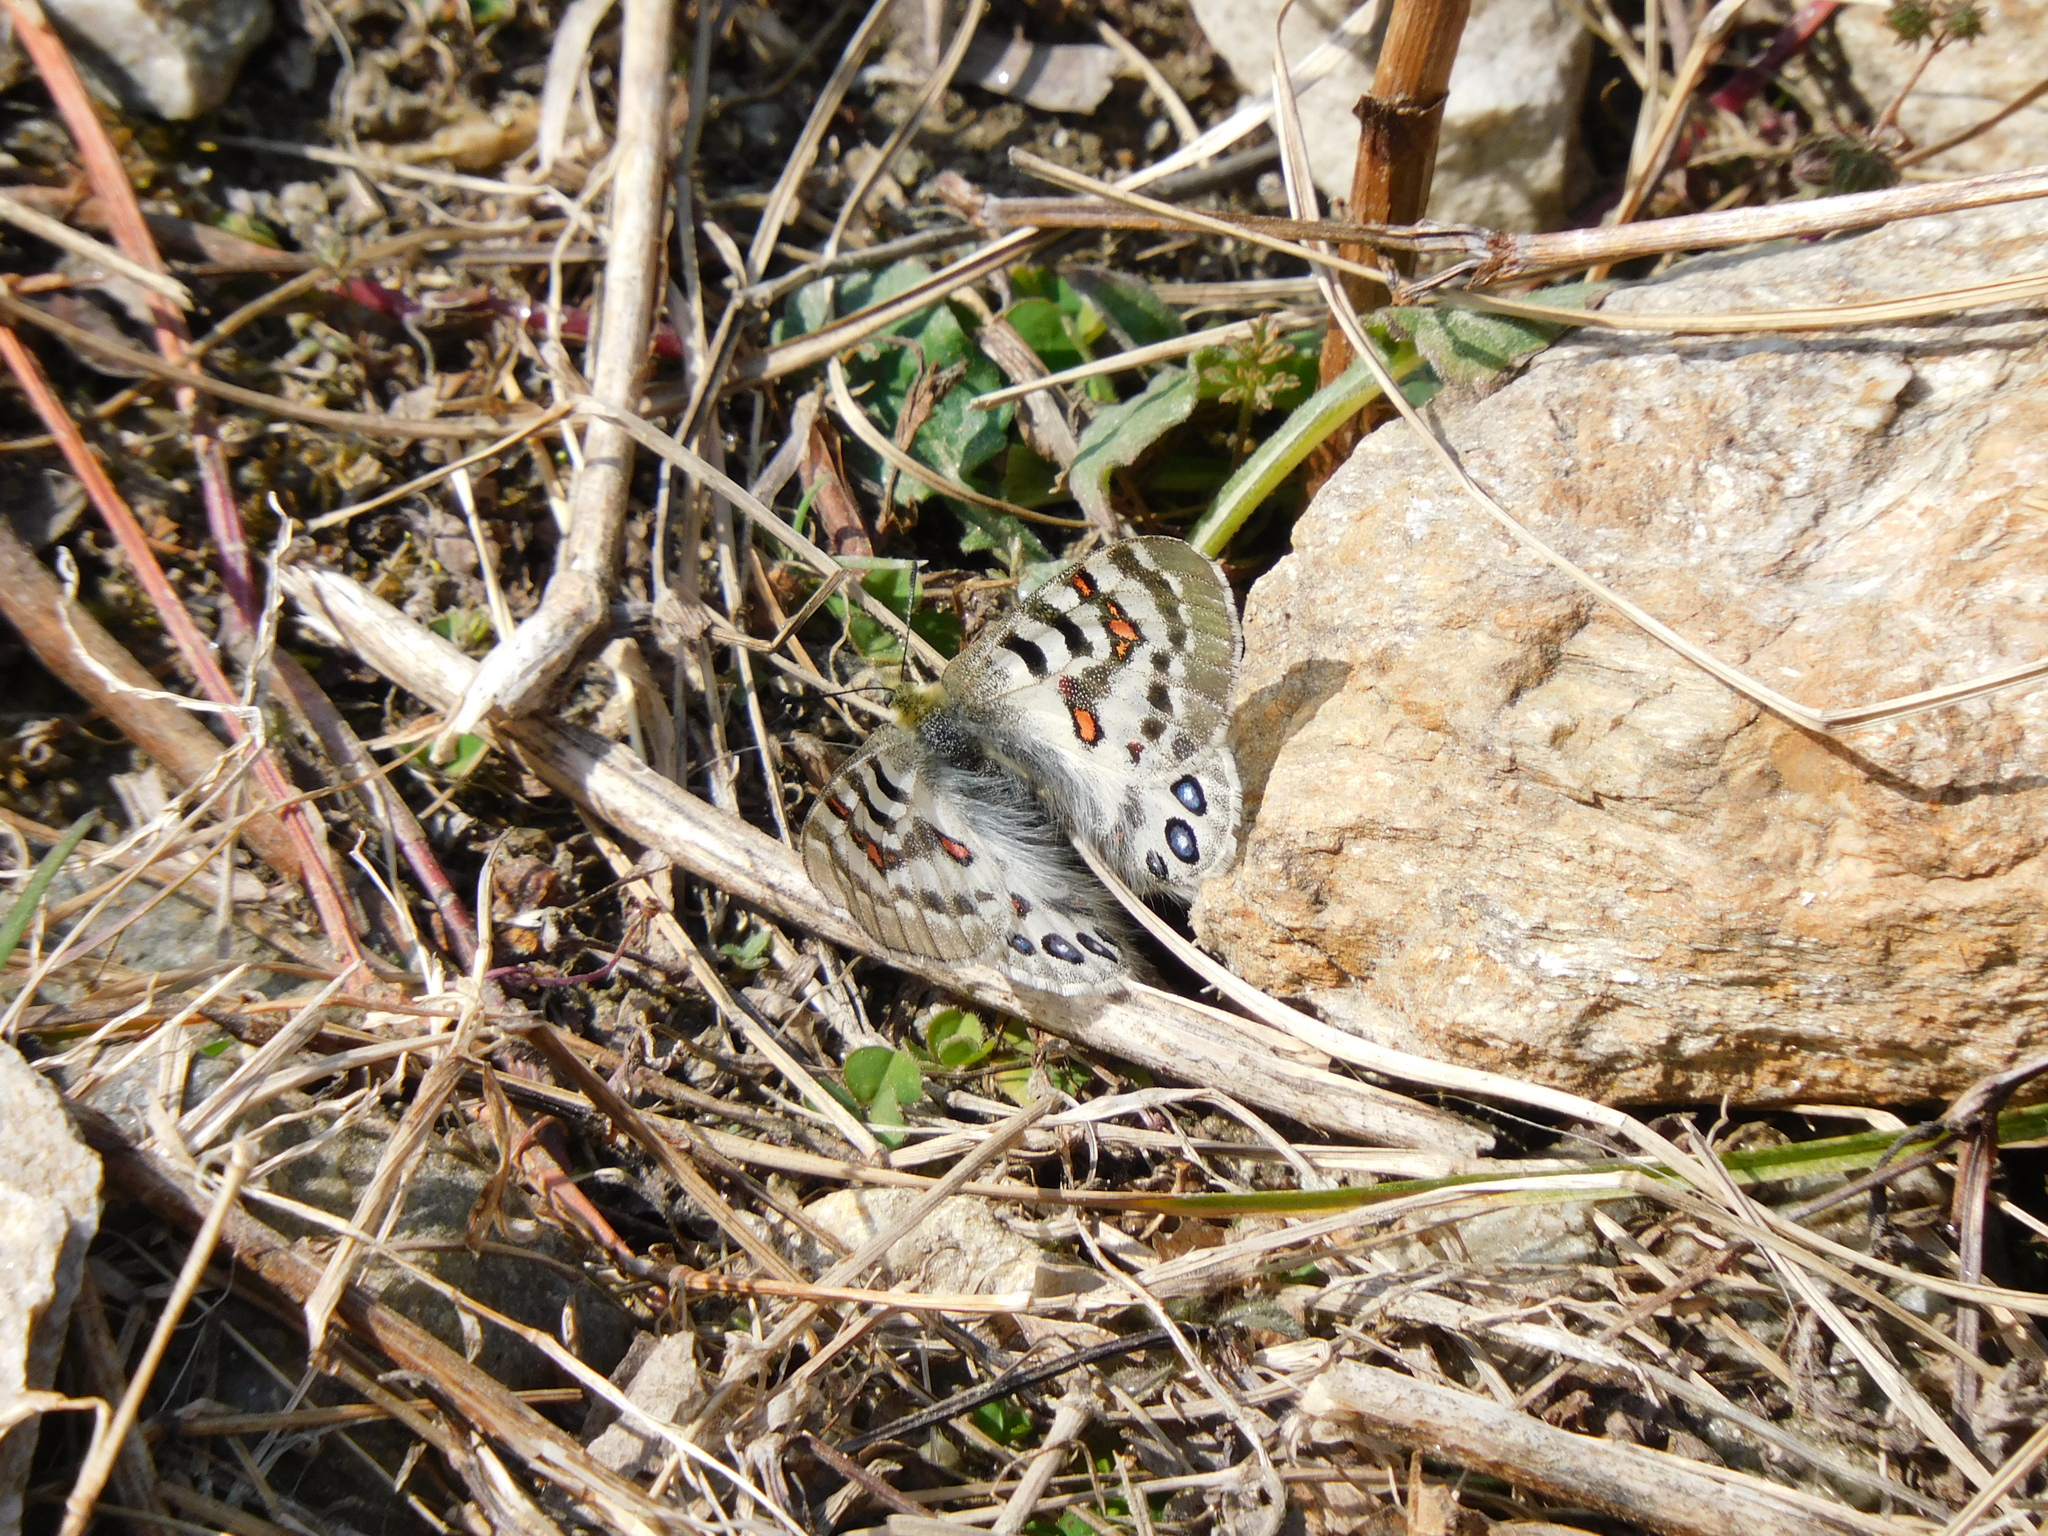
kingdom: Animalia
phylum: Arthropoda
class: Insecta
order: Lepidoptera
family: Papilionidae
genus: Parnassius
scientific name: Parnassius hardwickii
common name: Common blue apollo
